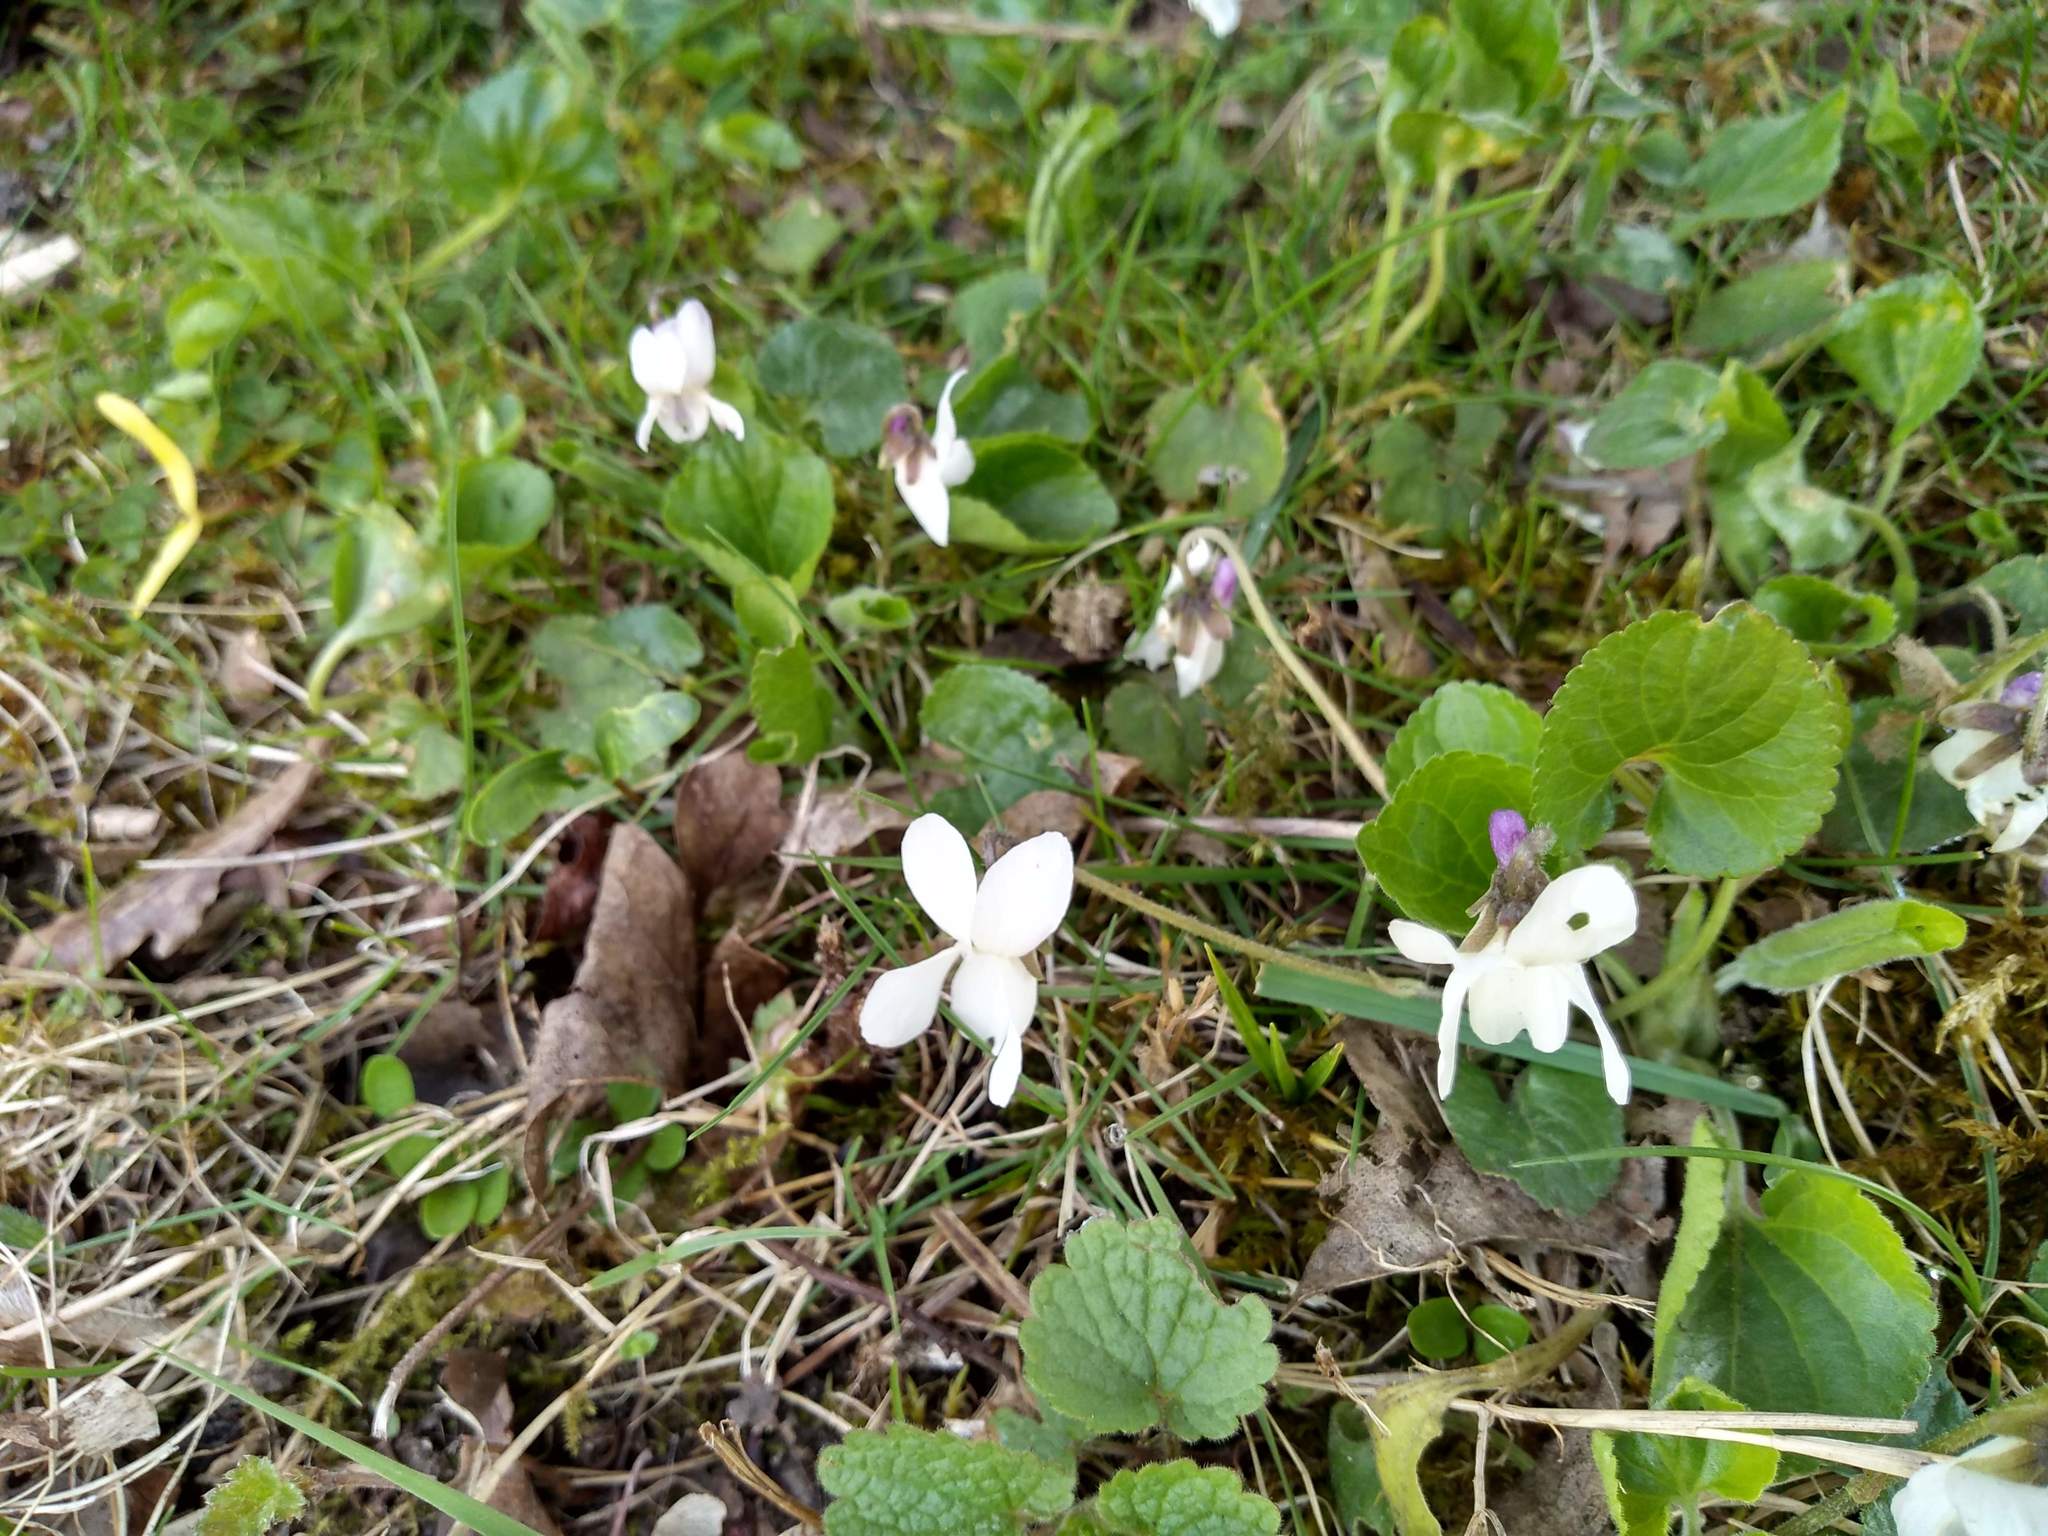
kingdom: Plantae
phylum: Tracheophyta
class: Magnoliopsida
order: Malpighiales
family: Violaceae
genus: Viola
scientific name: Viola odorata
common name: Sweet violet
